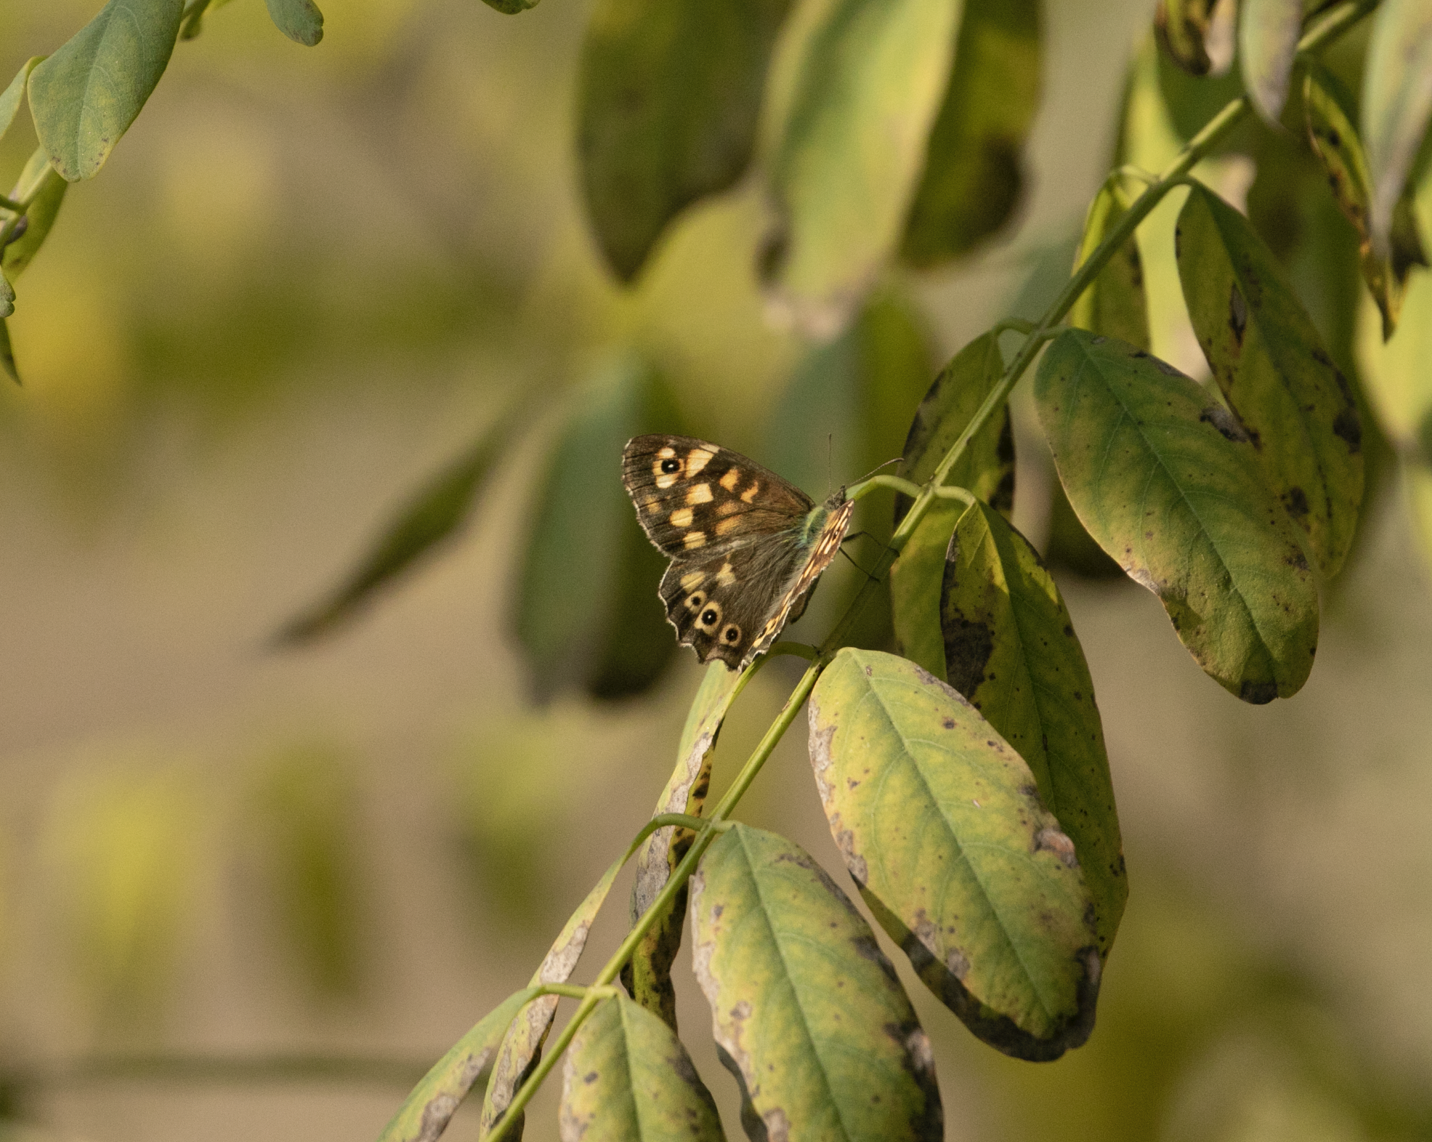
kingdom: Animalia
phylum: Arthropoda
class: Insecta
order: Lepidoptera
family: Nymphalidae
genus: Pararge
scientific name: Pararge aegeria
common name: Speckled wood
